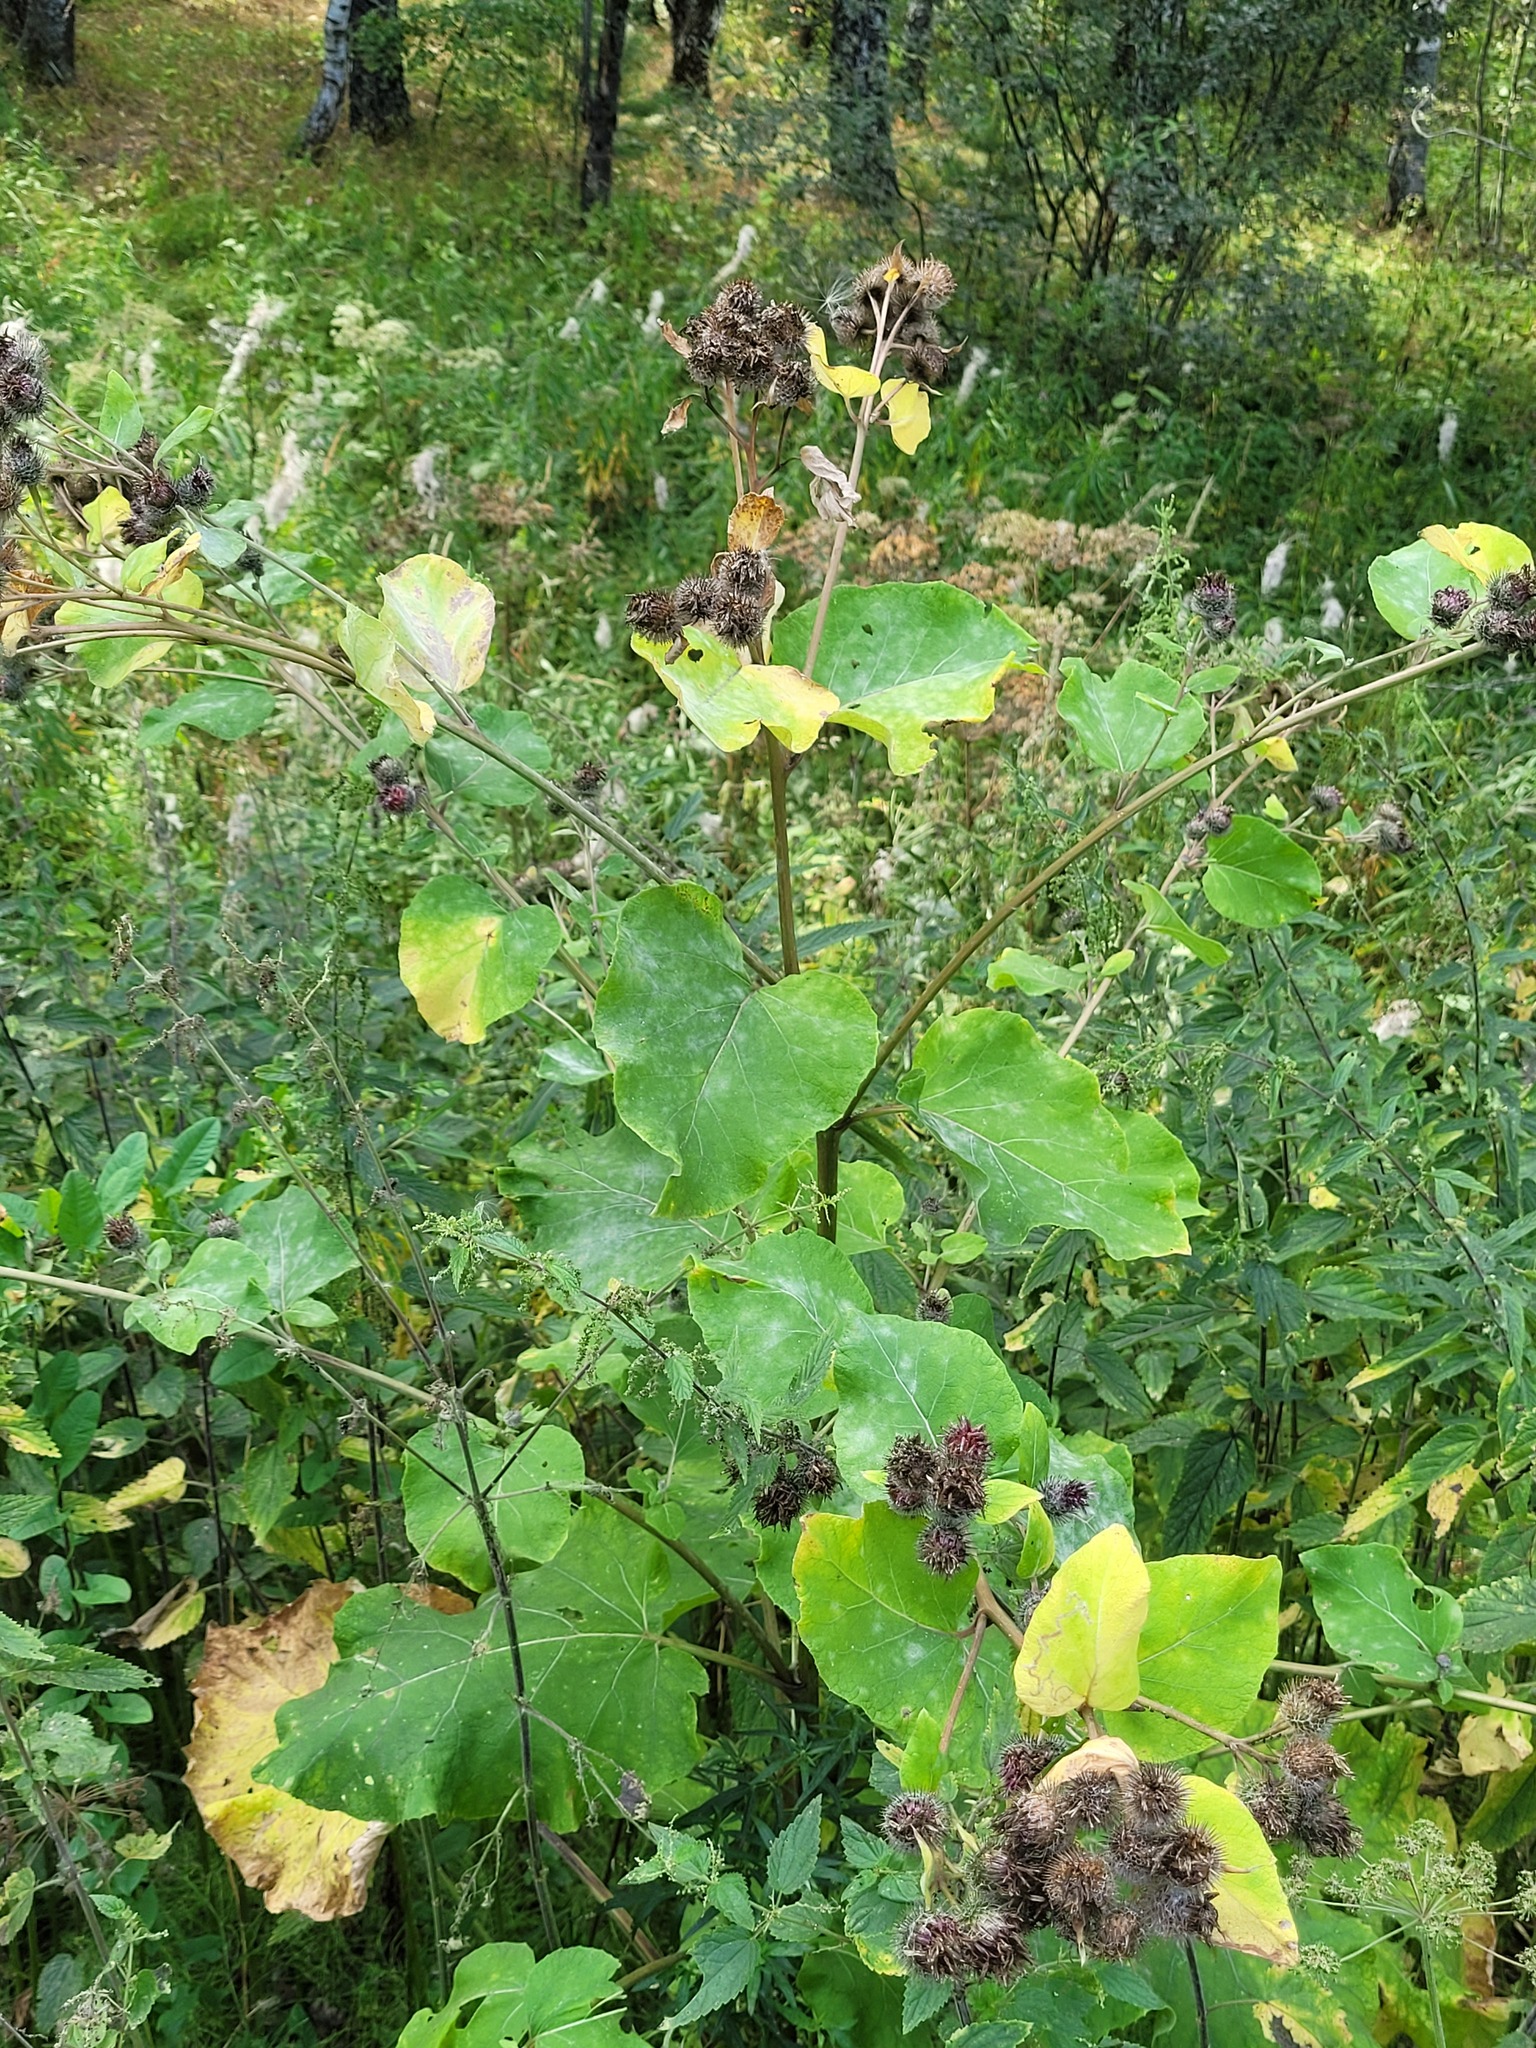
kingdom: Plantae
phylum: Tracheophyta
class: Magnoliopsida
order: Asterales
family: Asteraceae
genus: Arctium
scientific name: Arctium tomentosum
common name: Woolly burdock
